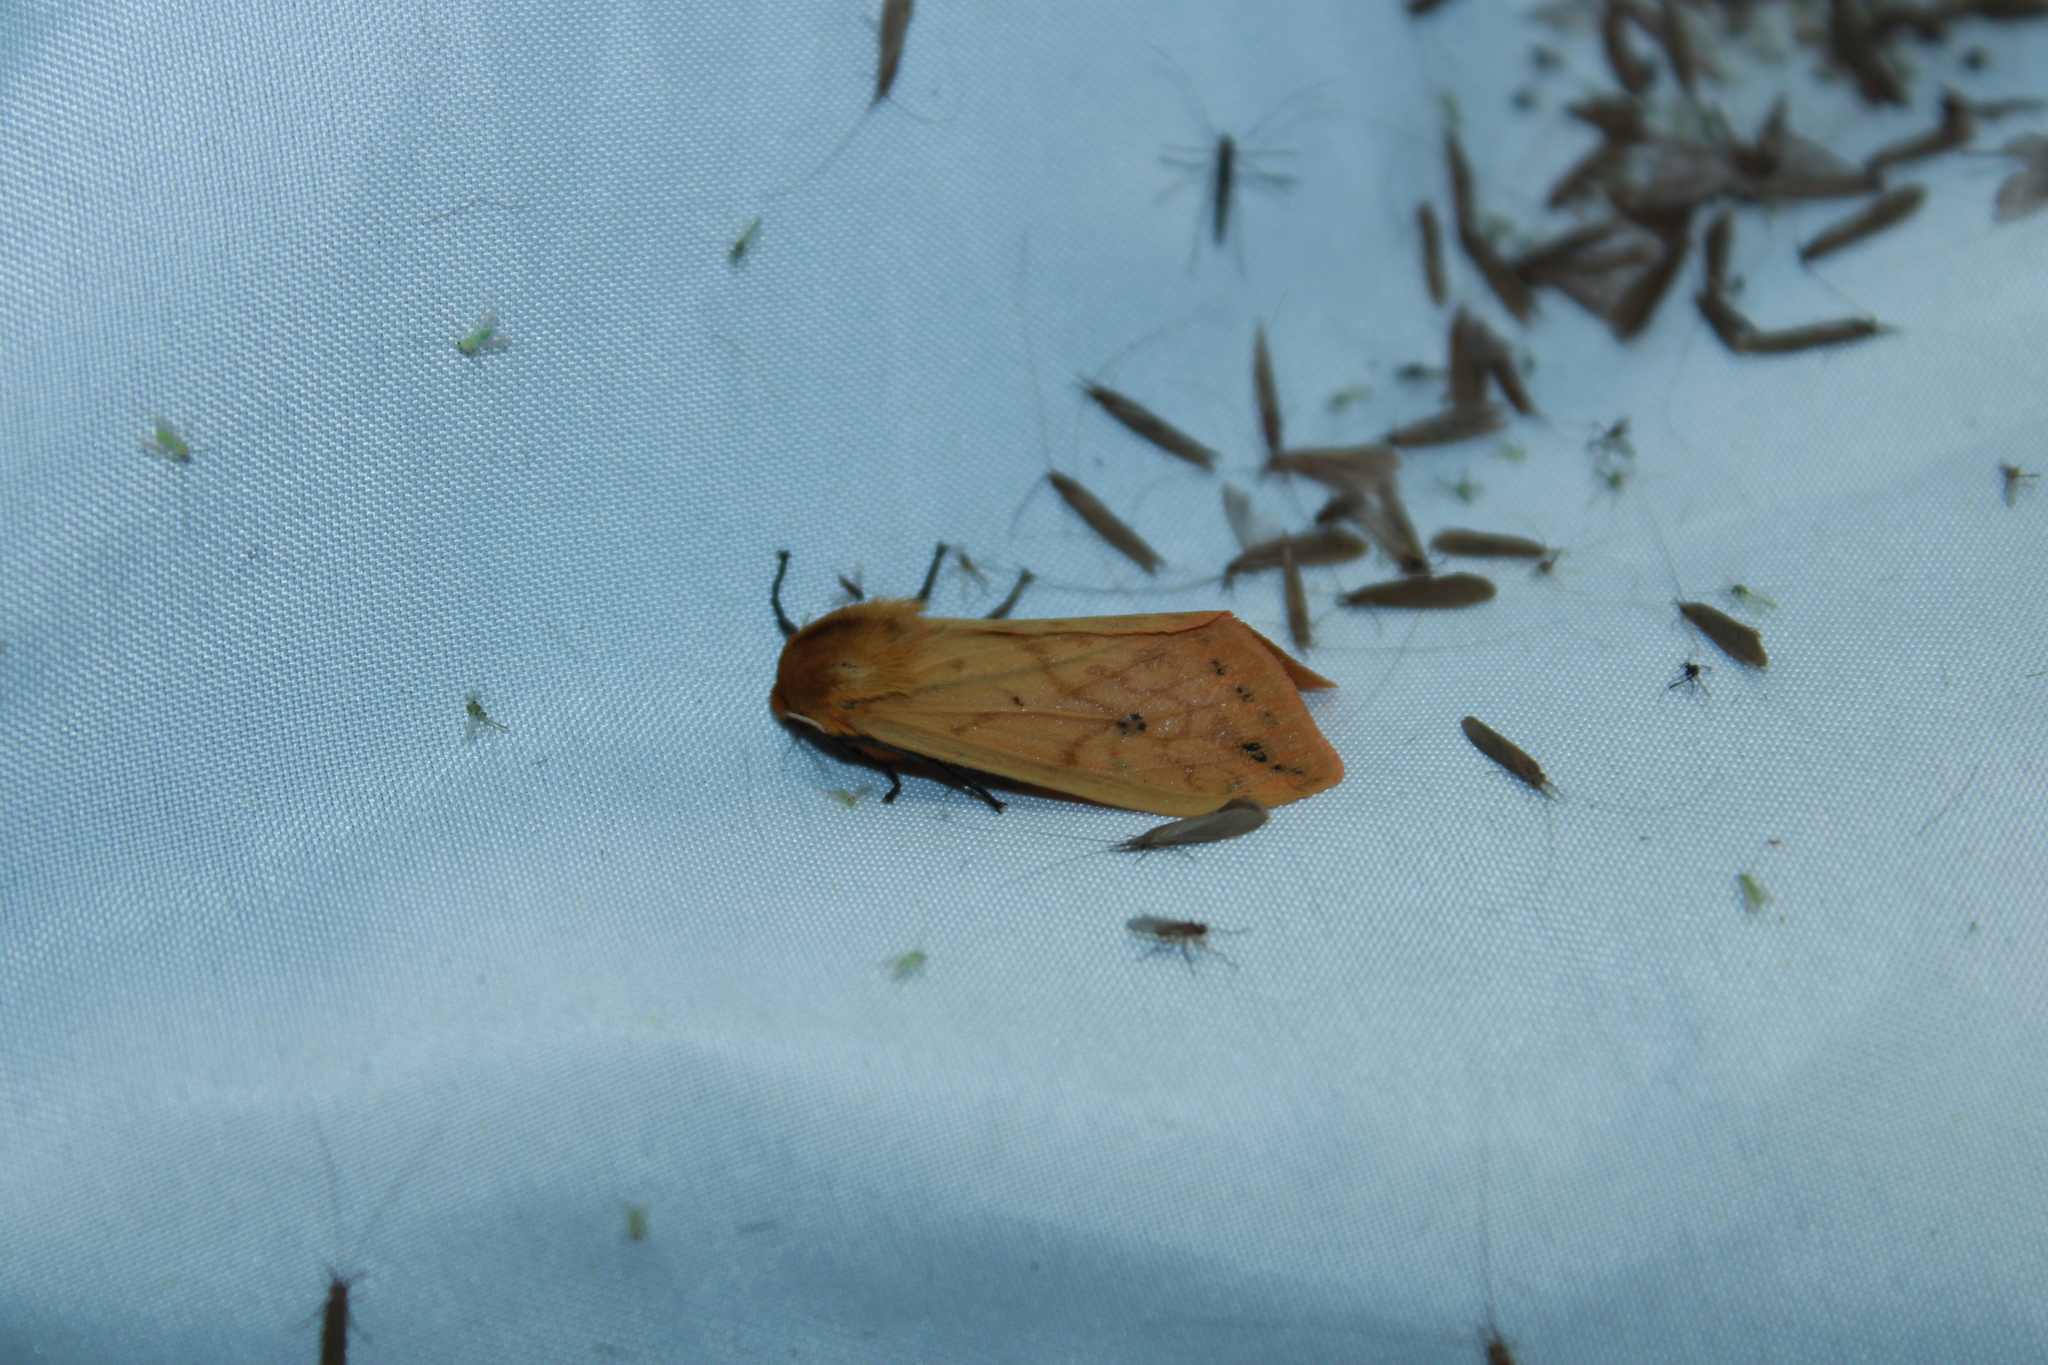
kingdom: Animalia
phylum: Arthropoda
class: Insecta
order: Lepidoptera
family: Erebidae
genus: Pyrrharctia
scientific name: Pyrrharctia isabella
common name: Isabella tiger moth
